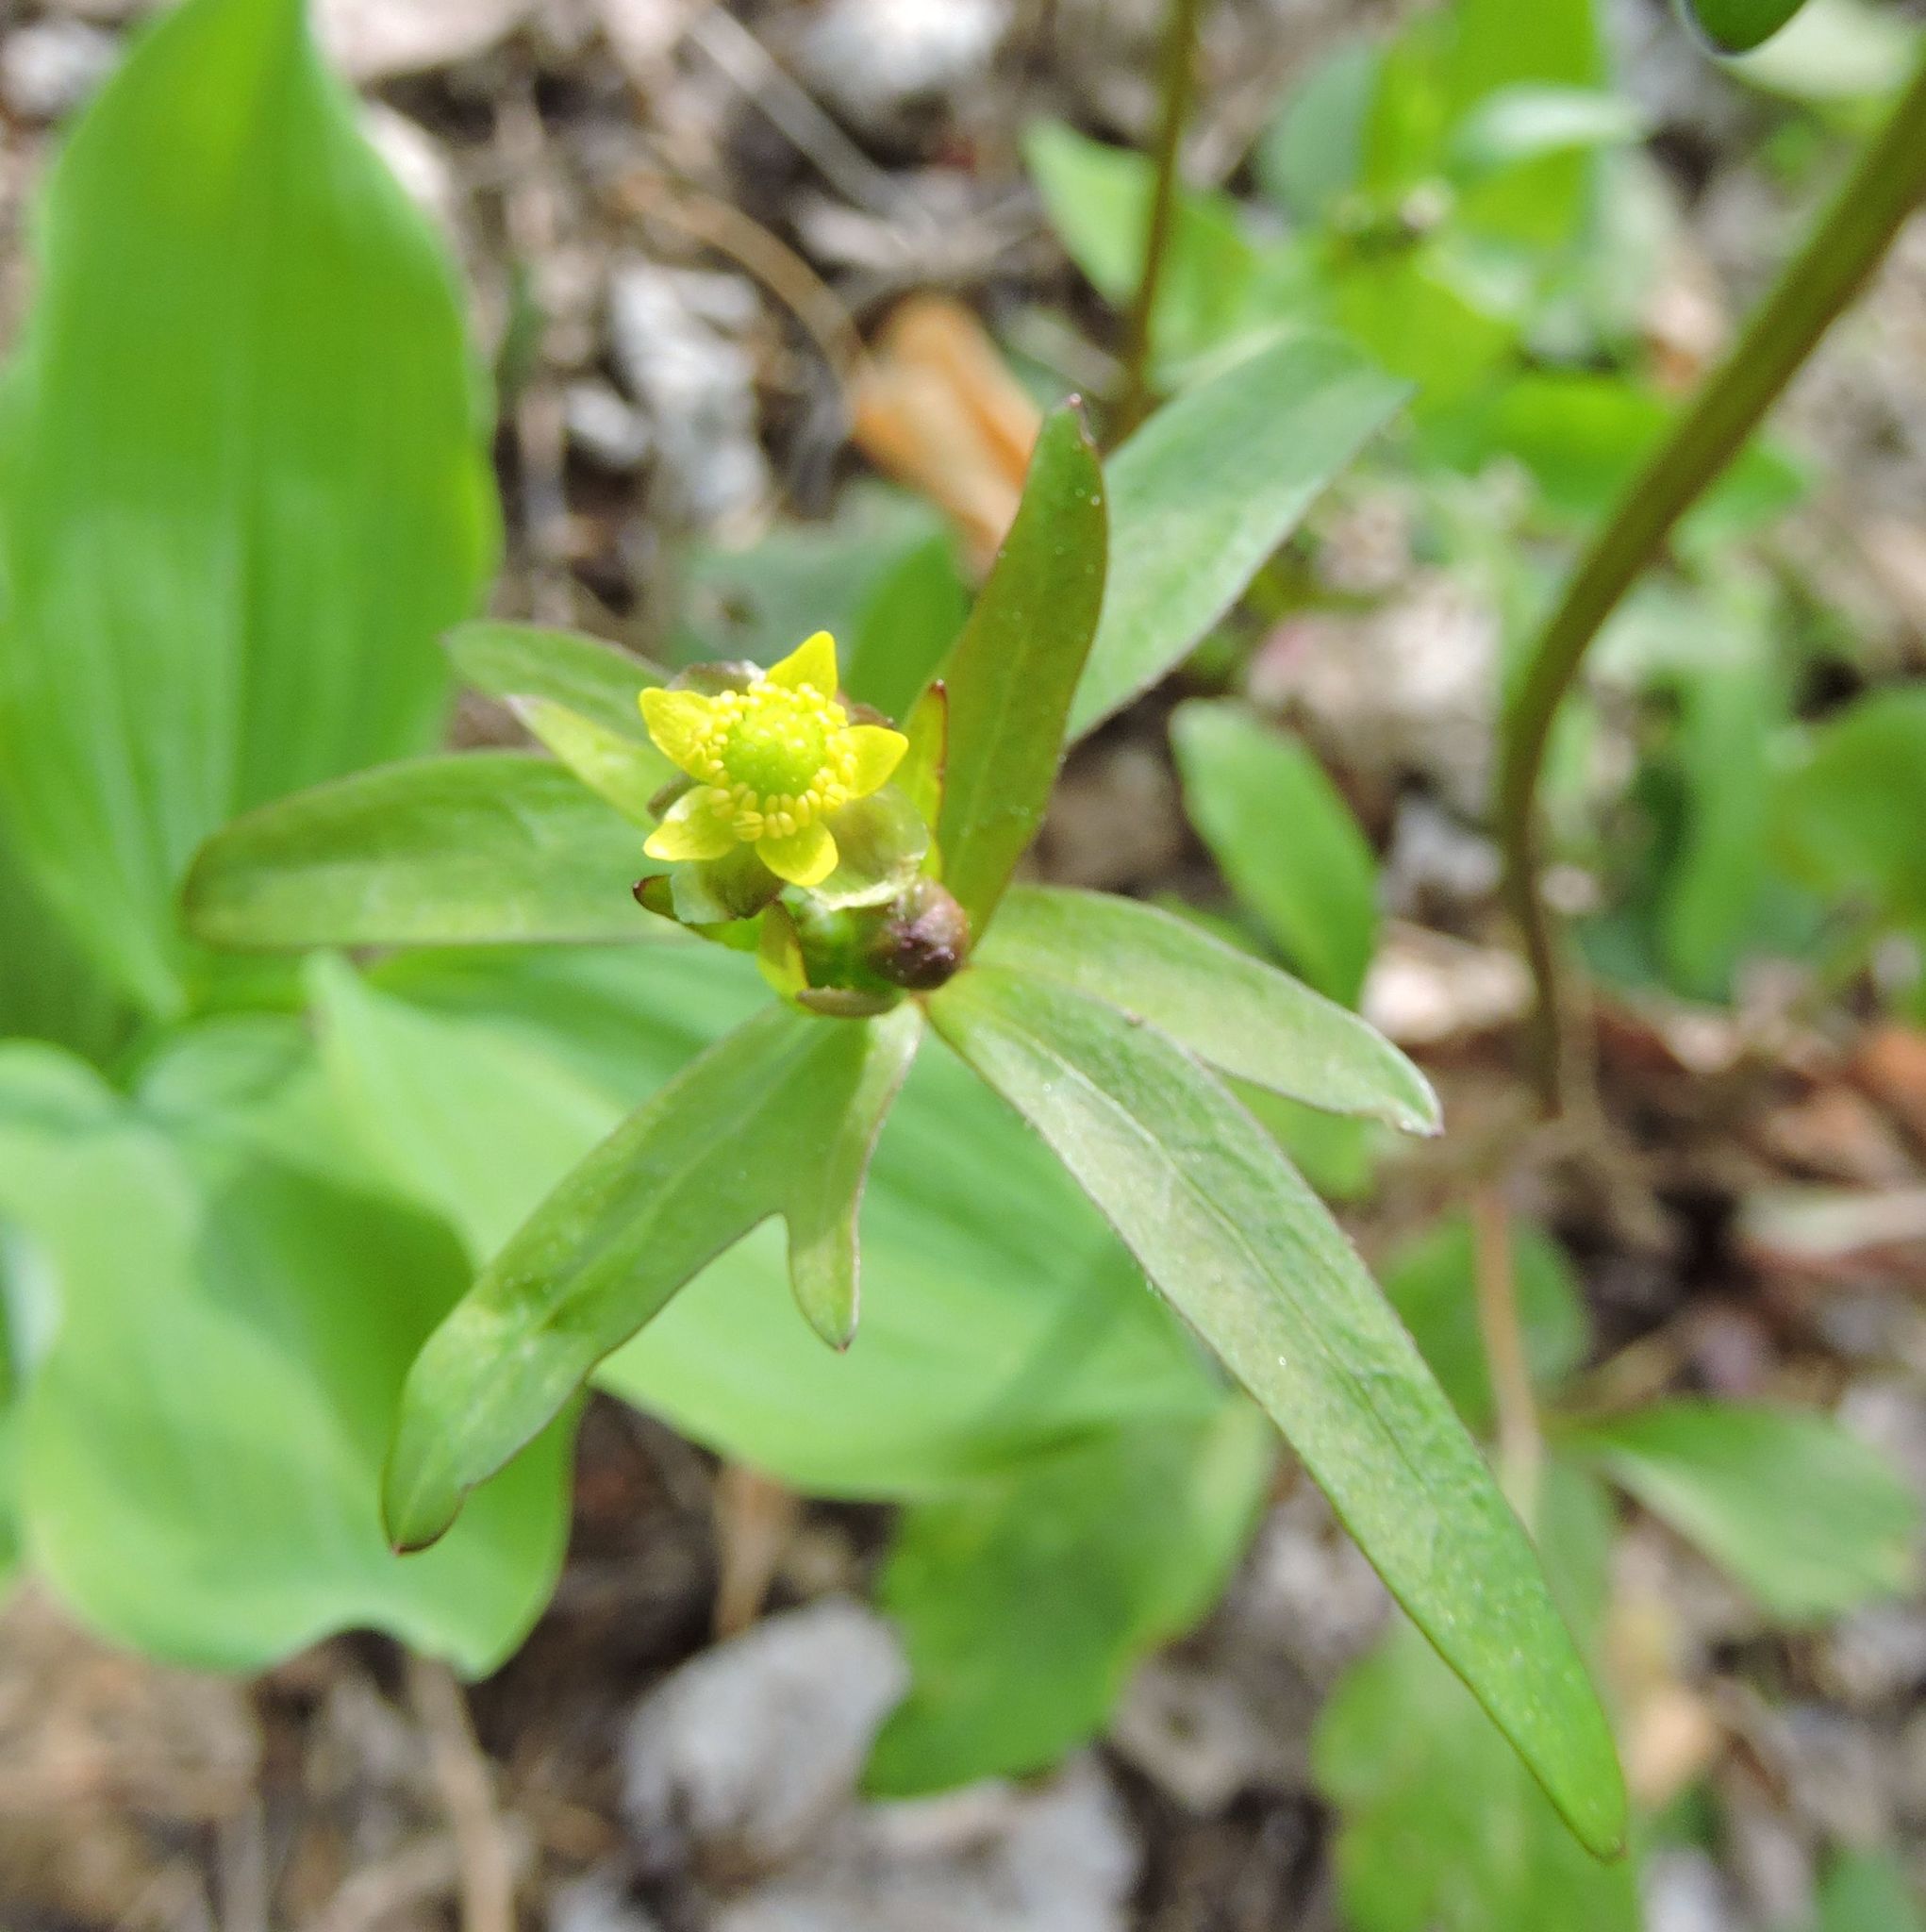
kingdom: Plantae
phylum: Tracheophyta
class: Magnoliopsida
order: Ranunculales
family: Ranunculaceae
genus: Ranunculus
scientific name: Ranunculus abortivus
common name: Early wood buttercup
